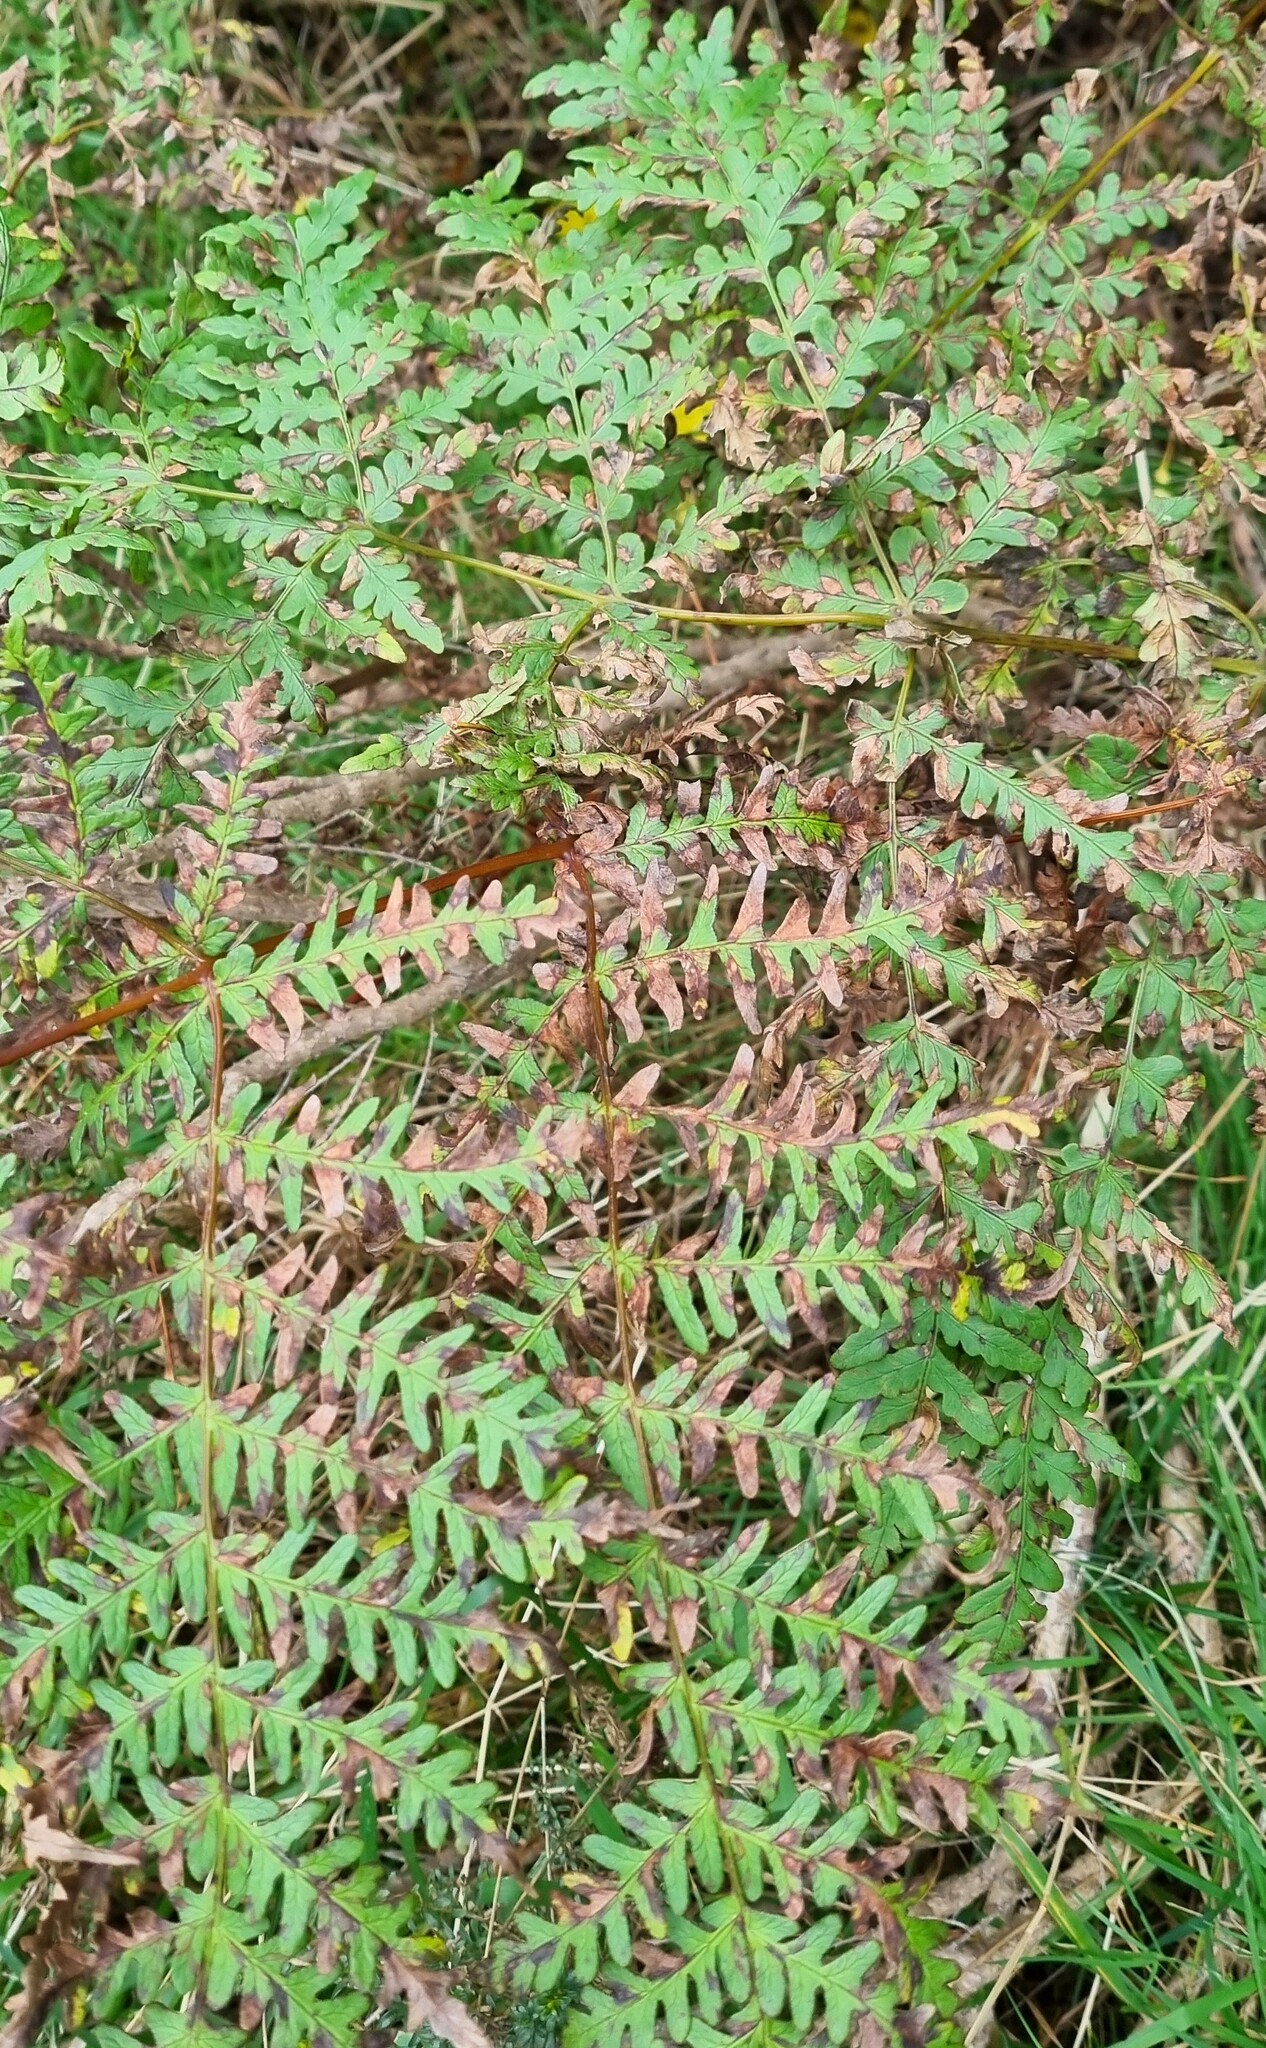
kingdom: Plantae
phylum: Tracheophyta
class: Polypodiopsida
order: Polypodiales
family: Dennstaedtiaceae
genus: Histiopteris
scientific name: Histiopteris incisa
